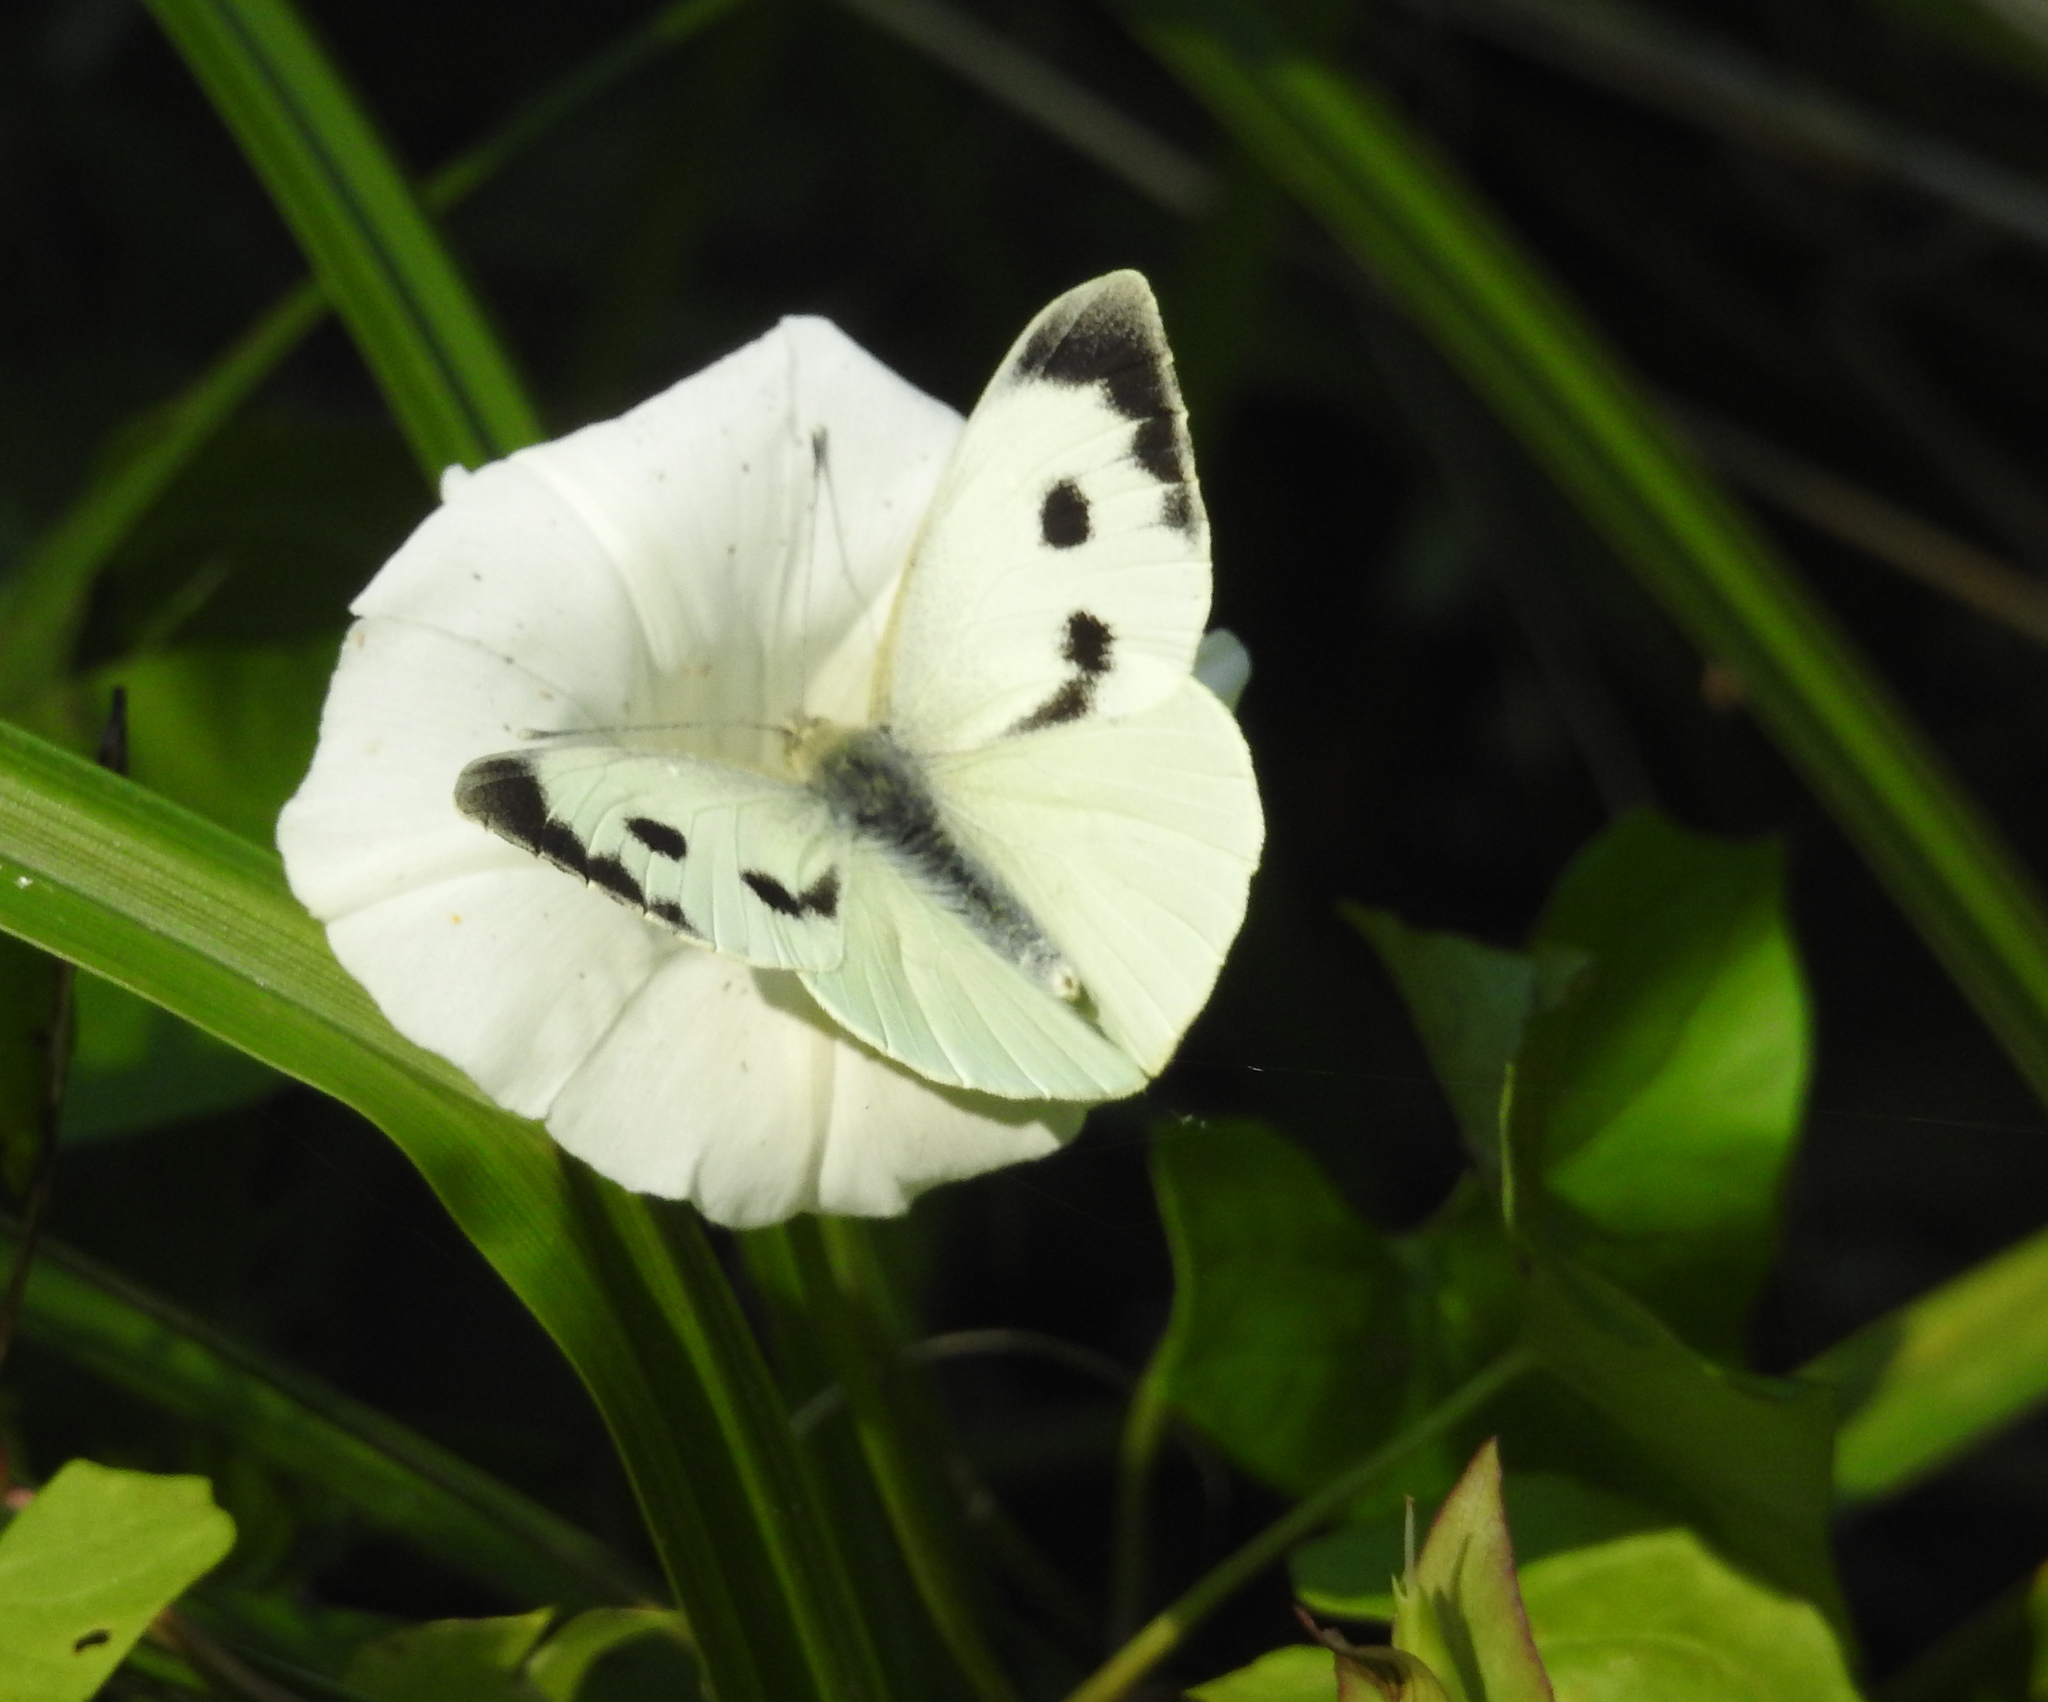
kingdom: Animalia
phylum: Arthropoda
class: Insecta
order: Lepidoptera
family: Pieridae
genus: Pieris
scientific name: Pieris brassicae
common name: Large white
